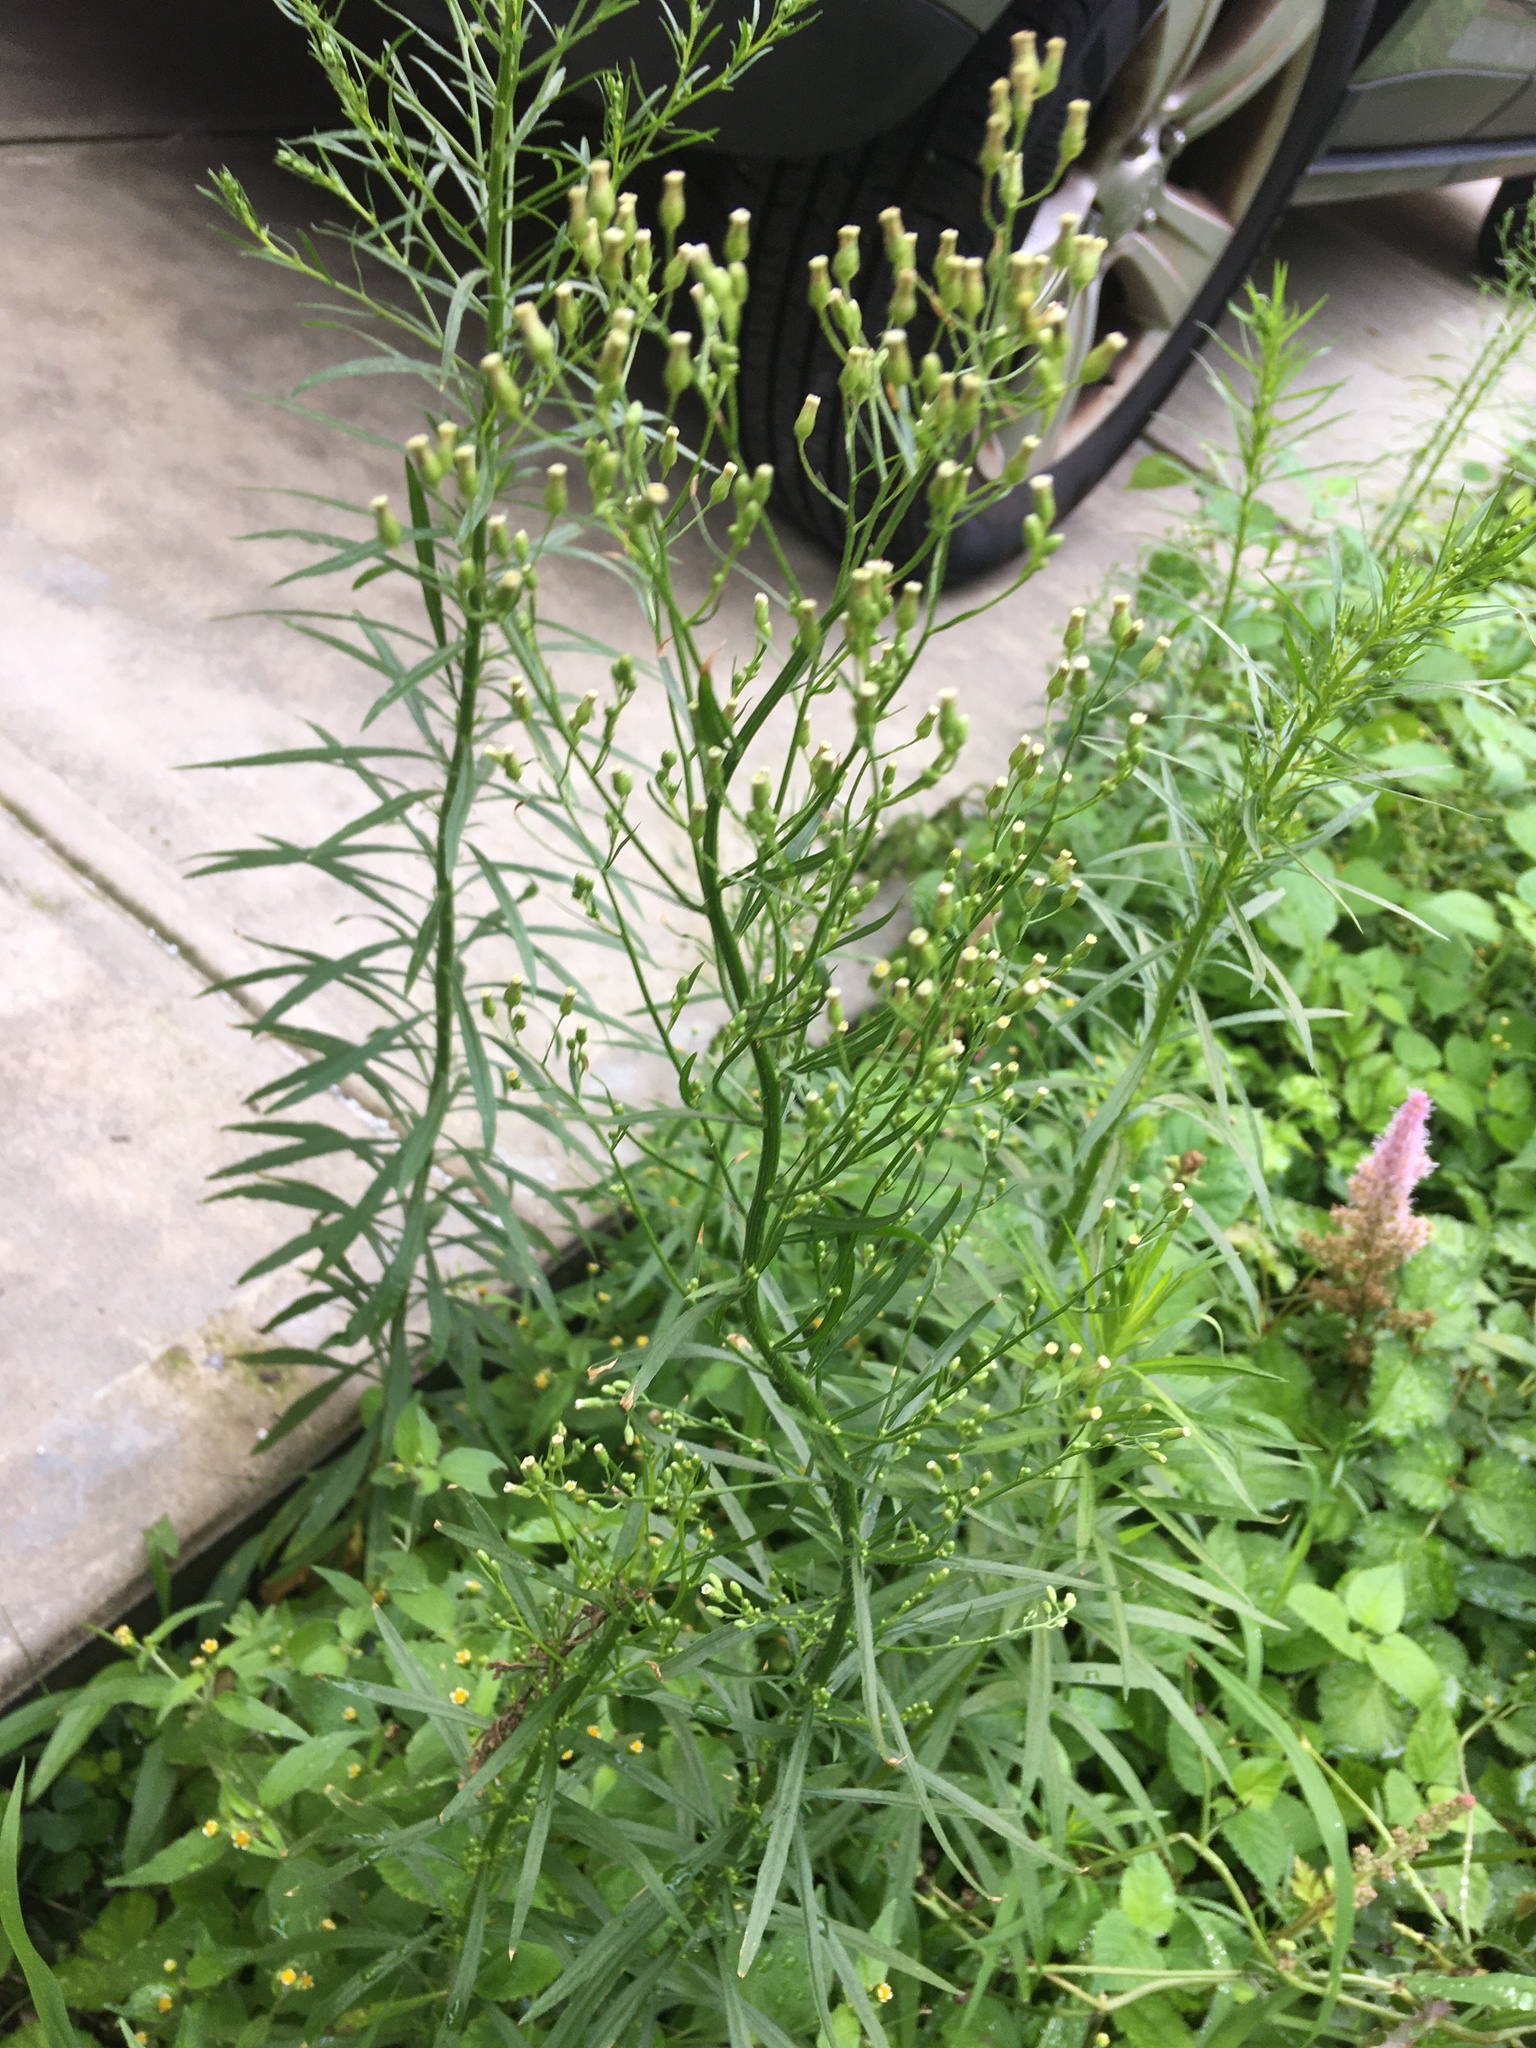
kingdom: Plantae
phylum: Tracheophyta
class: Magnoliopsida
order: Asterales
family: Asteraceae
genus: Erigeron
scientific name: Erigeron canadensis
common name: Canadian fleabane
